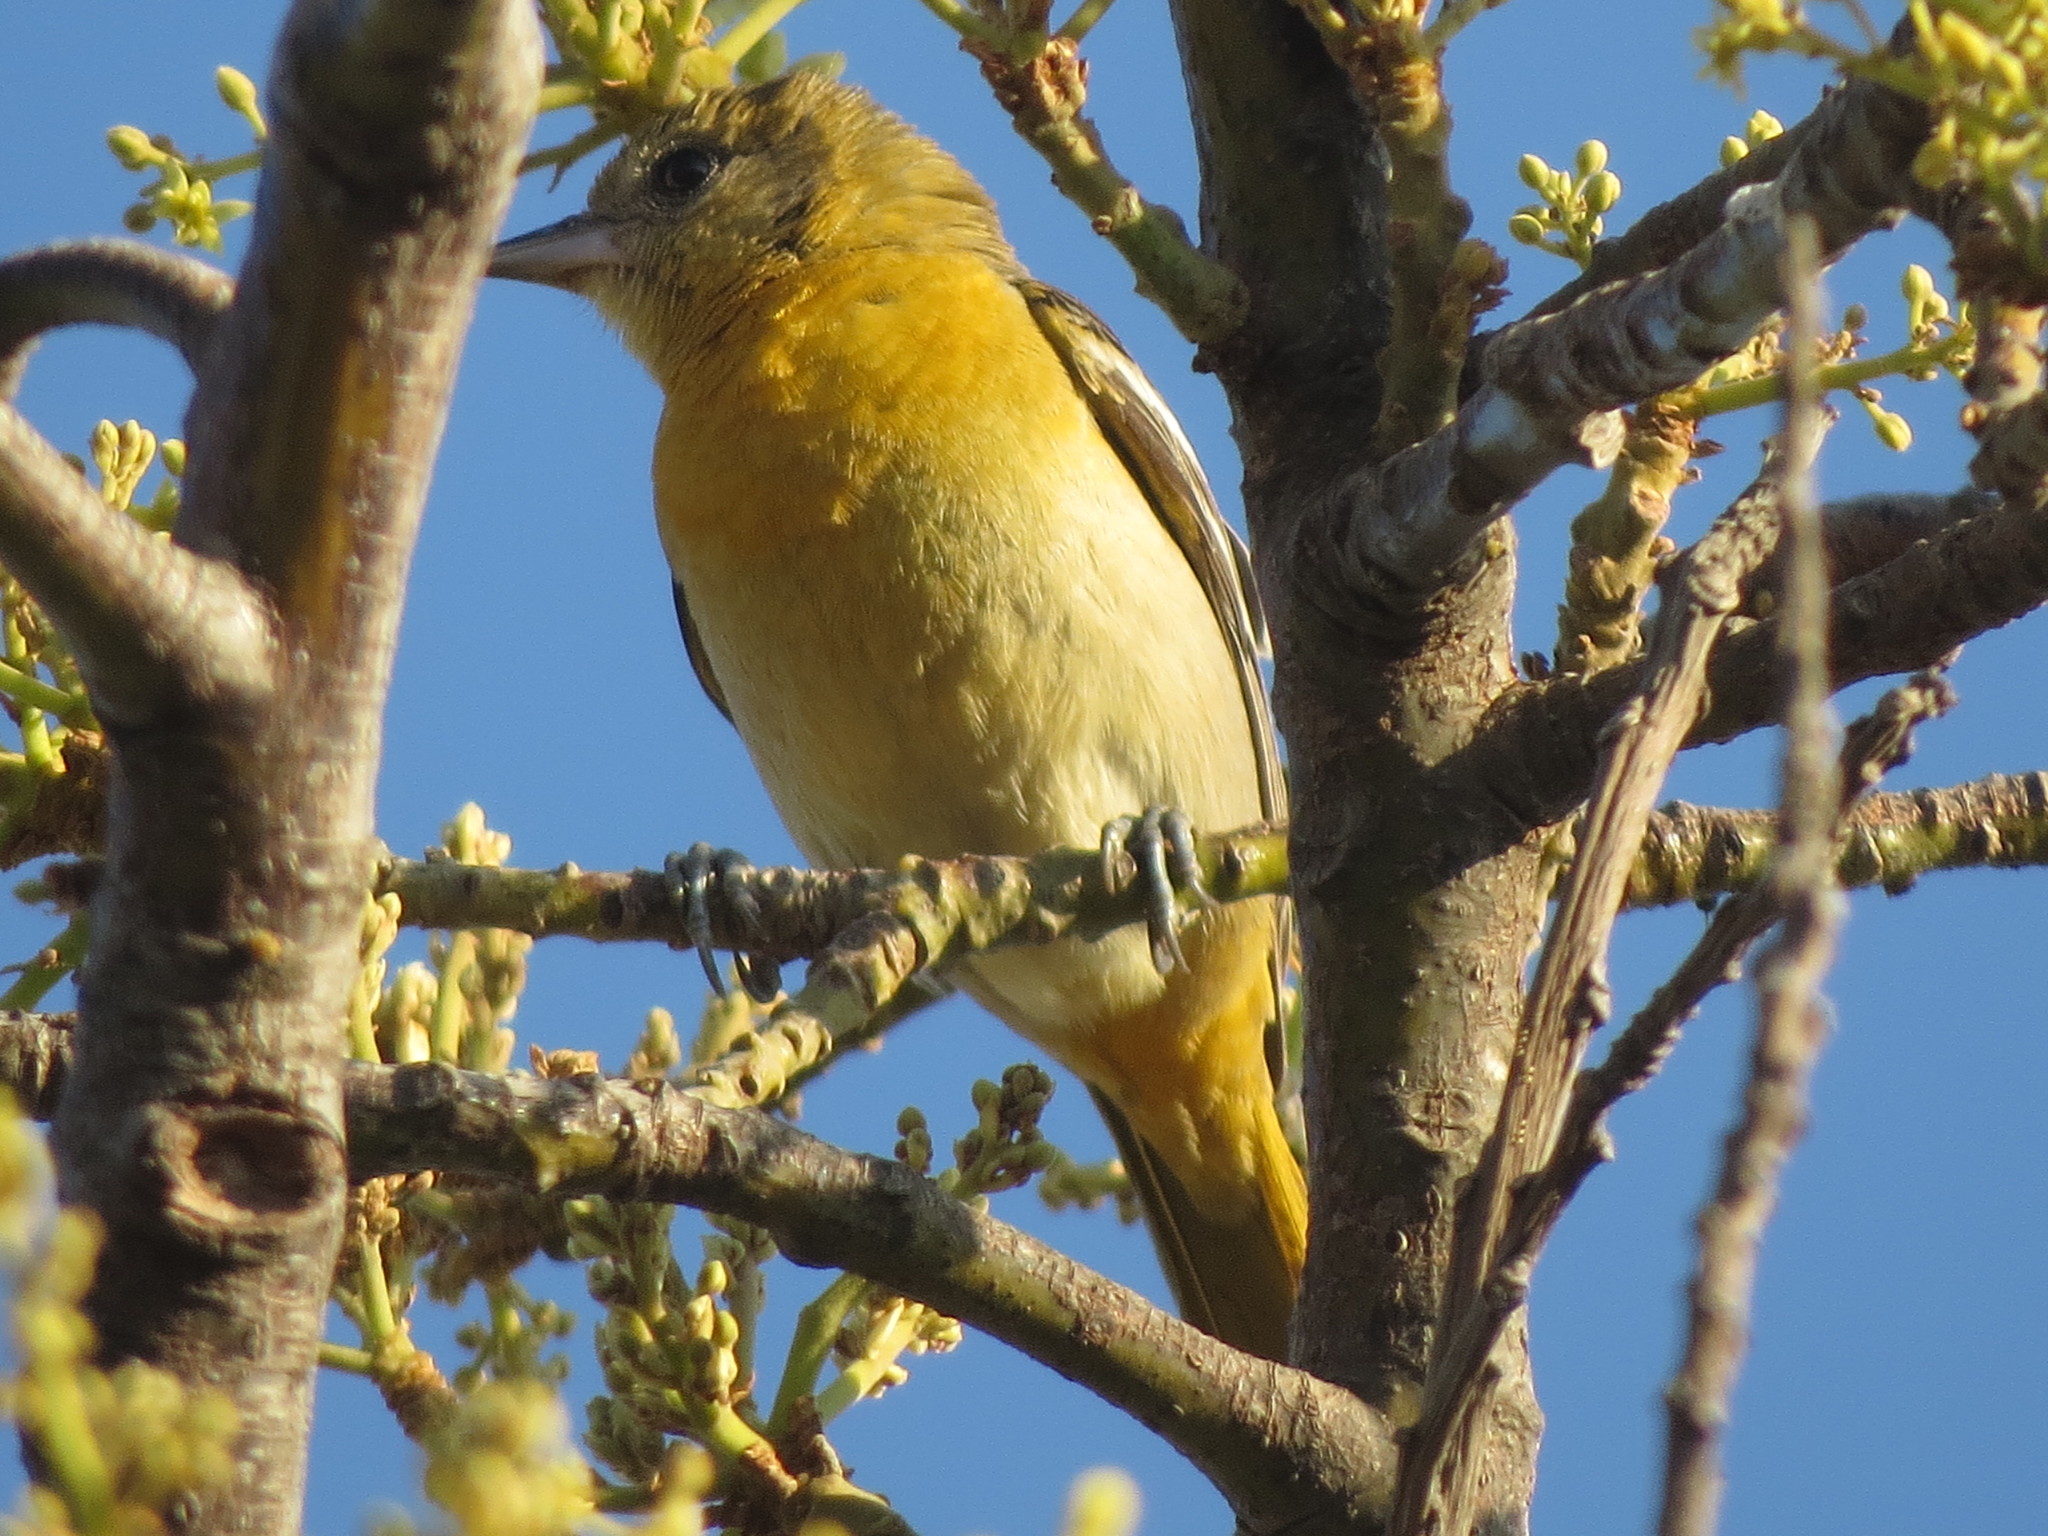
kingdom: Animalia
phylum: Chordata
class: Aves
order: Passeriformes
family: Icteridae
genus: Icterus
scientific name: Icterus galbula
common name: Baltimore oriole
